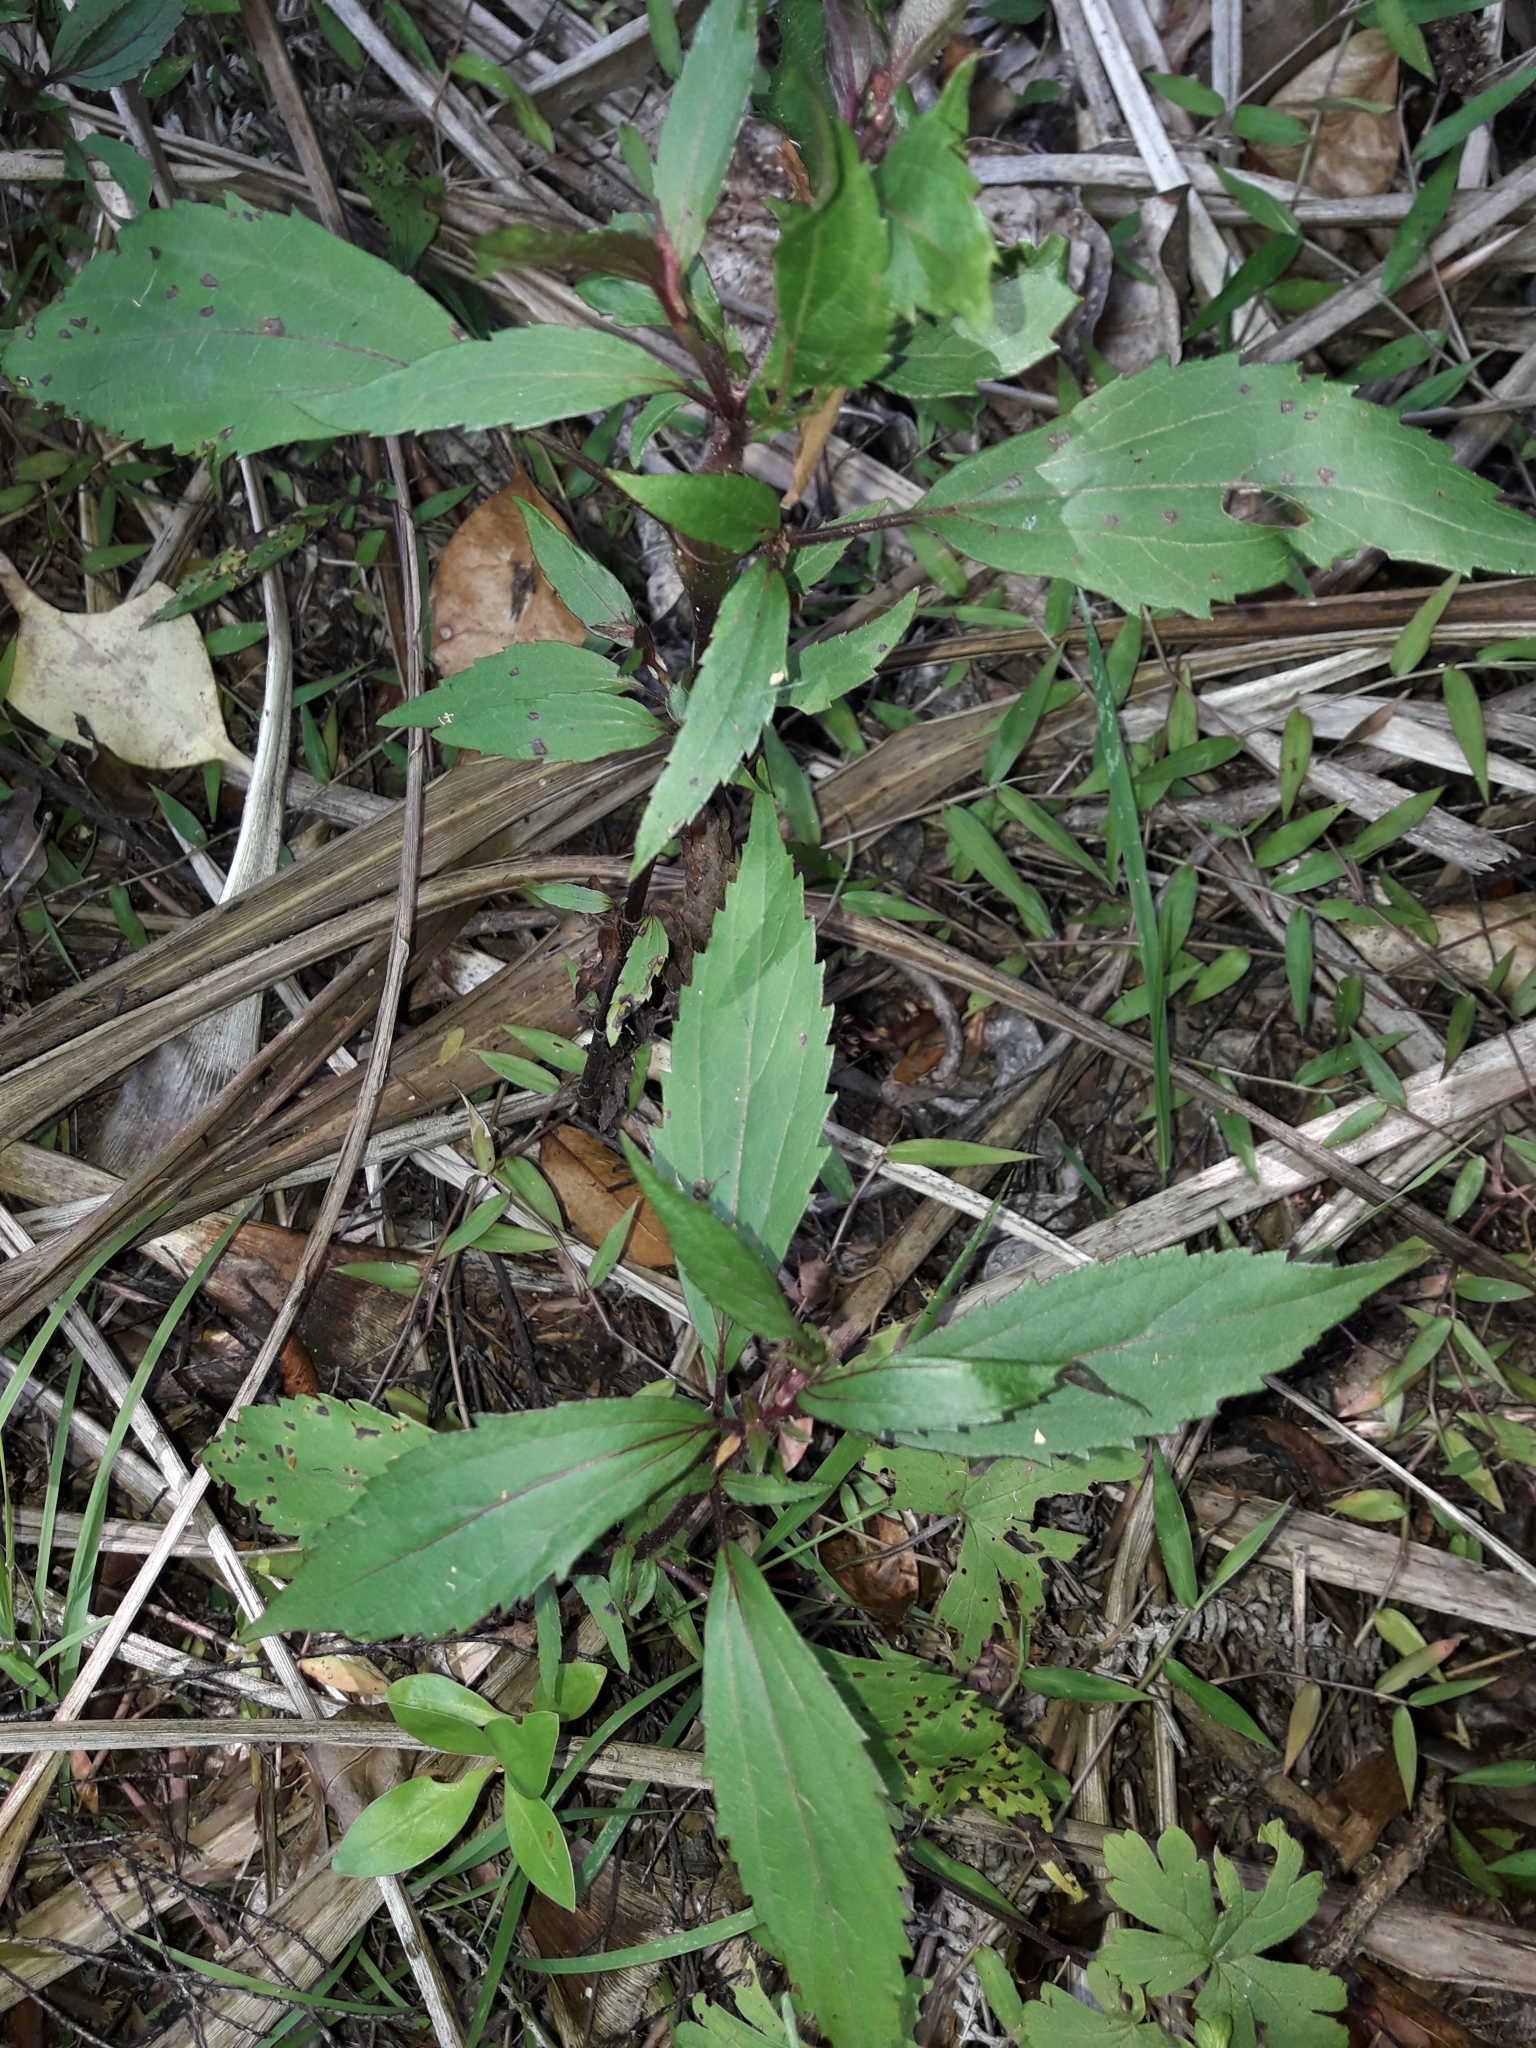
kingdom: Plantae
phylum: Tracheophyta
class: Magnoliopsida
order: Asterales
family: Asteraceae
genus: Ageratina
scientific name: Ageratina riparia
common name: Creeping croftonweed
